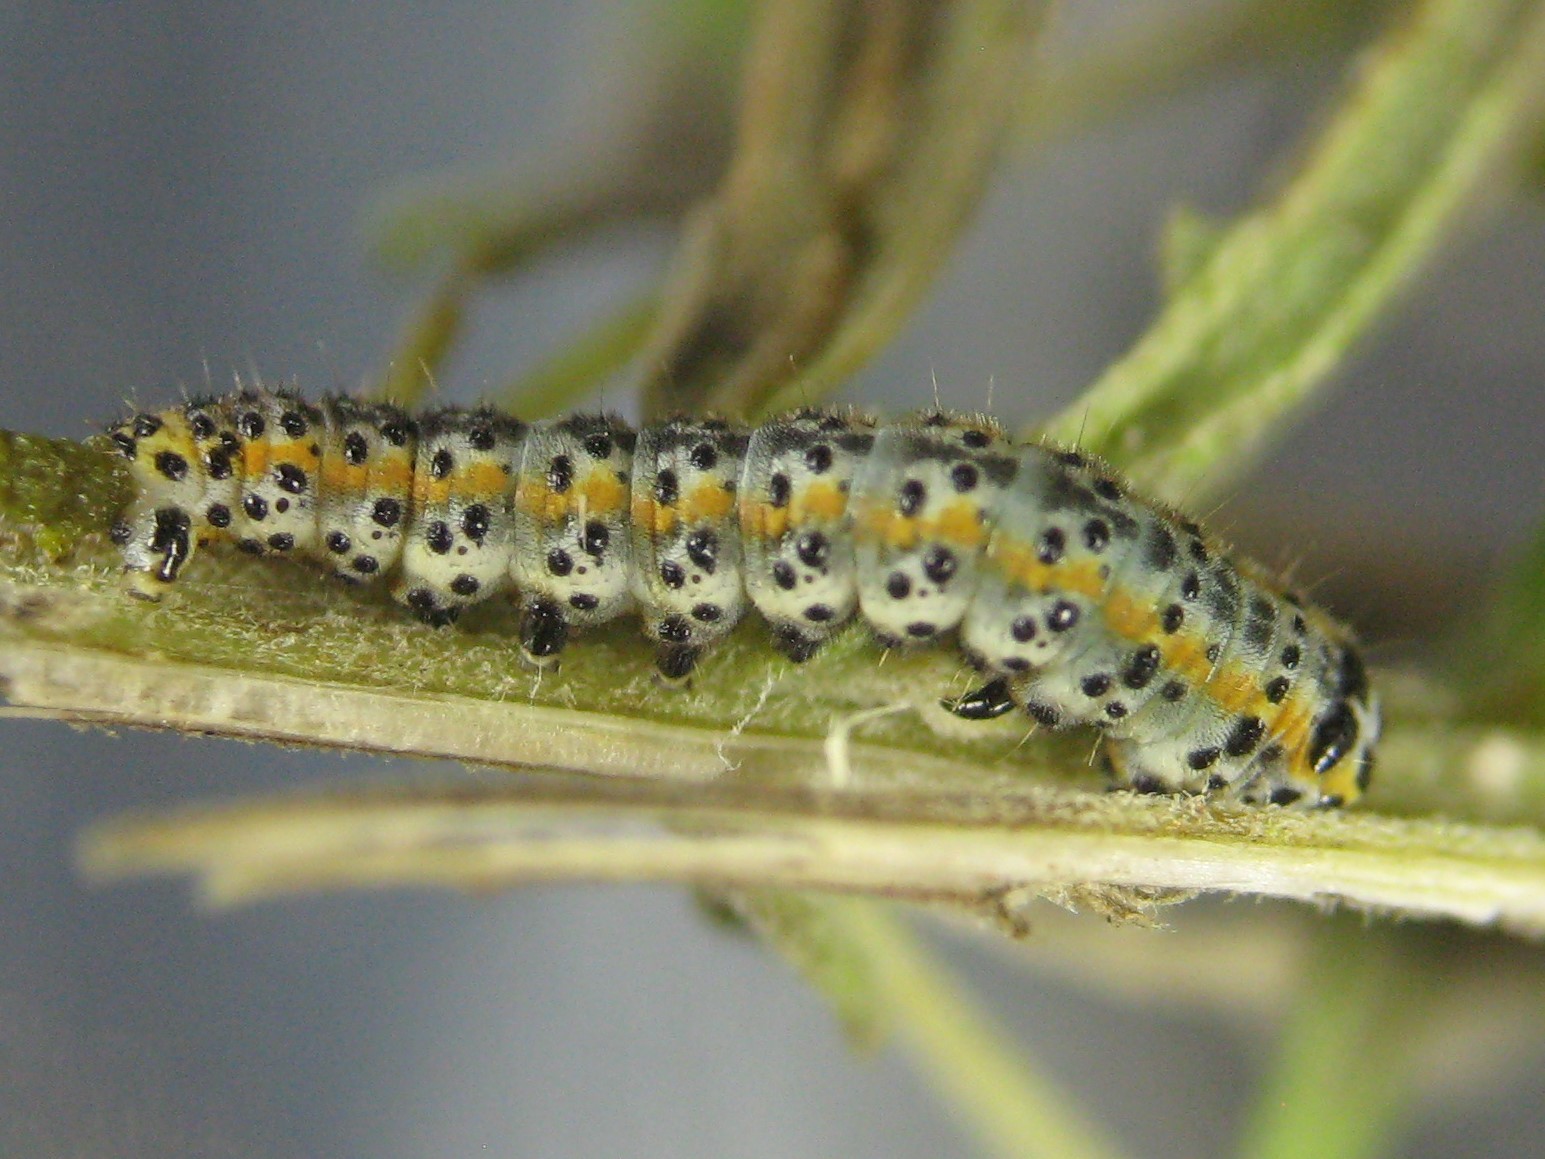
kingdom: Animalia
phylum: Arthropoda
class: Insecta
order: Lepidoptera
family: Noctuidae
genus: Schinia
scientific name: Schinia grandimedia
